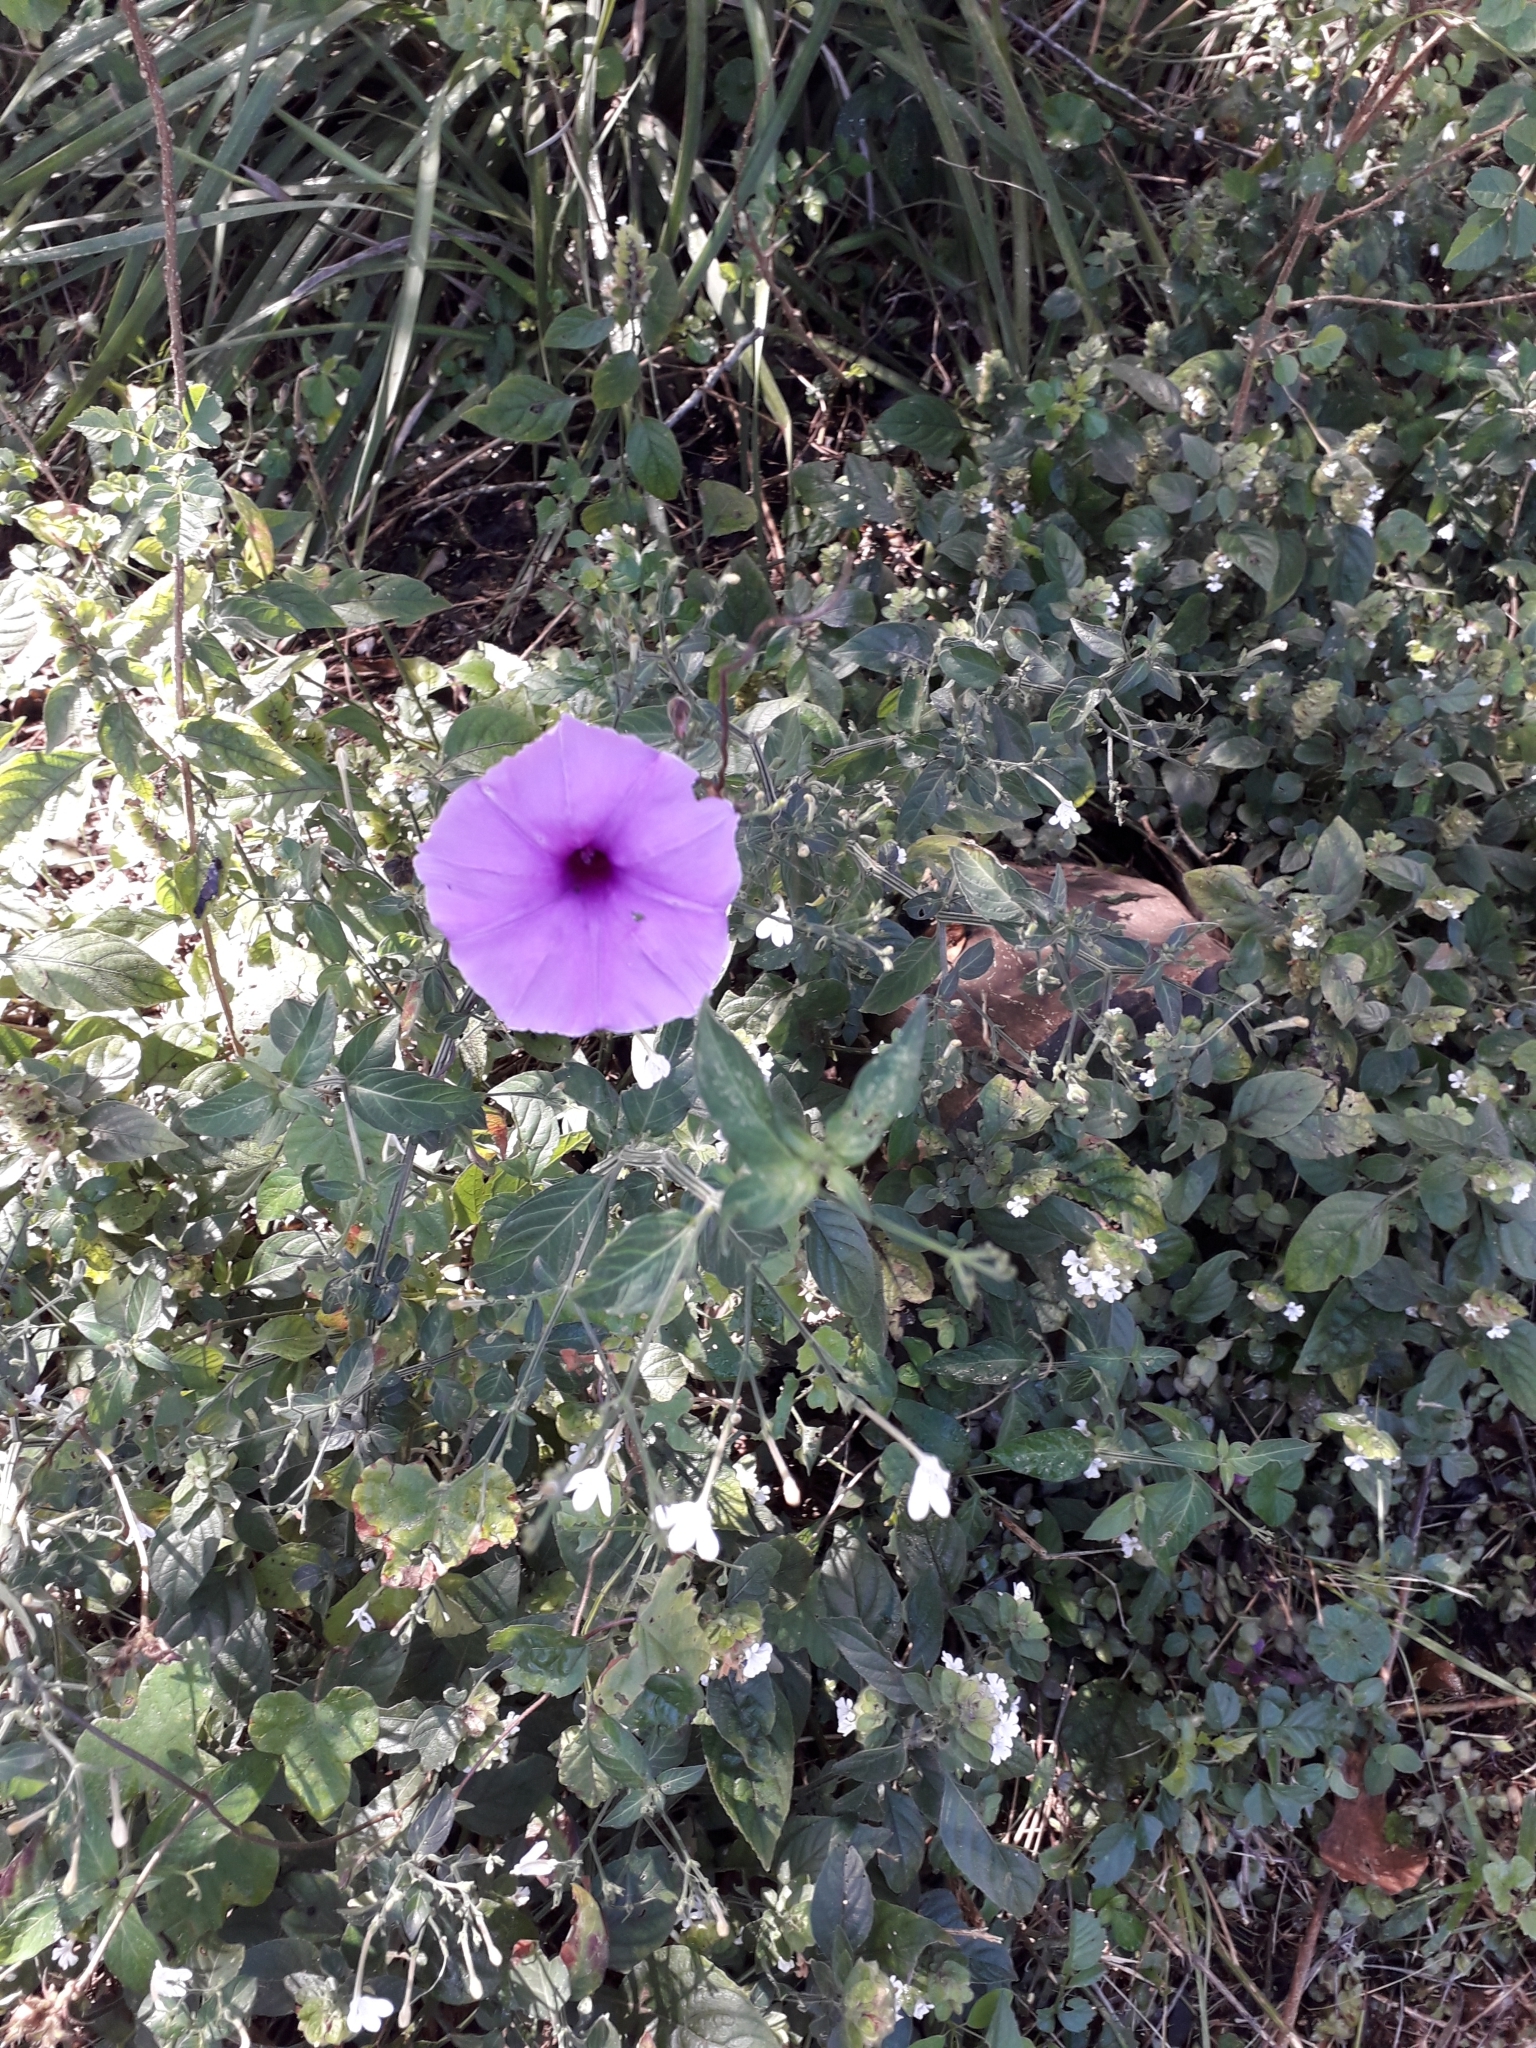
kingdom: Plantae
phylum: Tracheophyta
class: Magnoliopsida
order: Solanales
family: Convolvulaceae
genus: Ipomoea
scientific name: Ipomoea ficifolia
